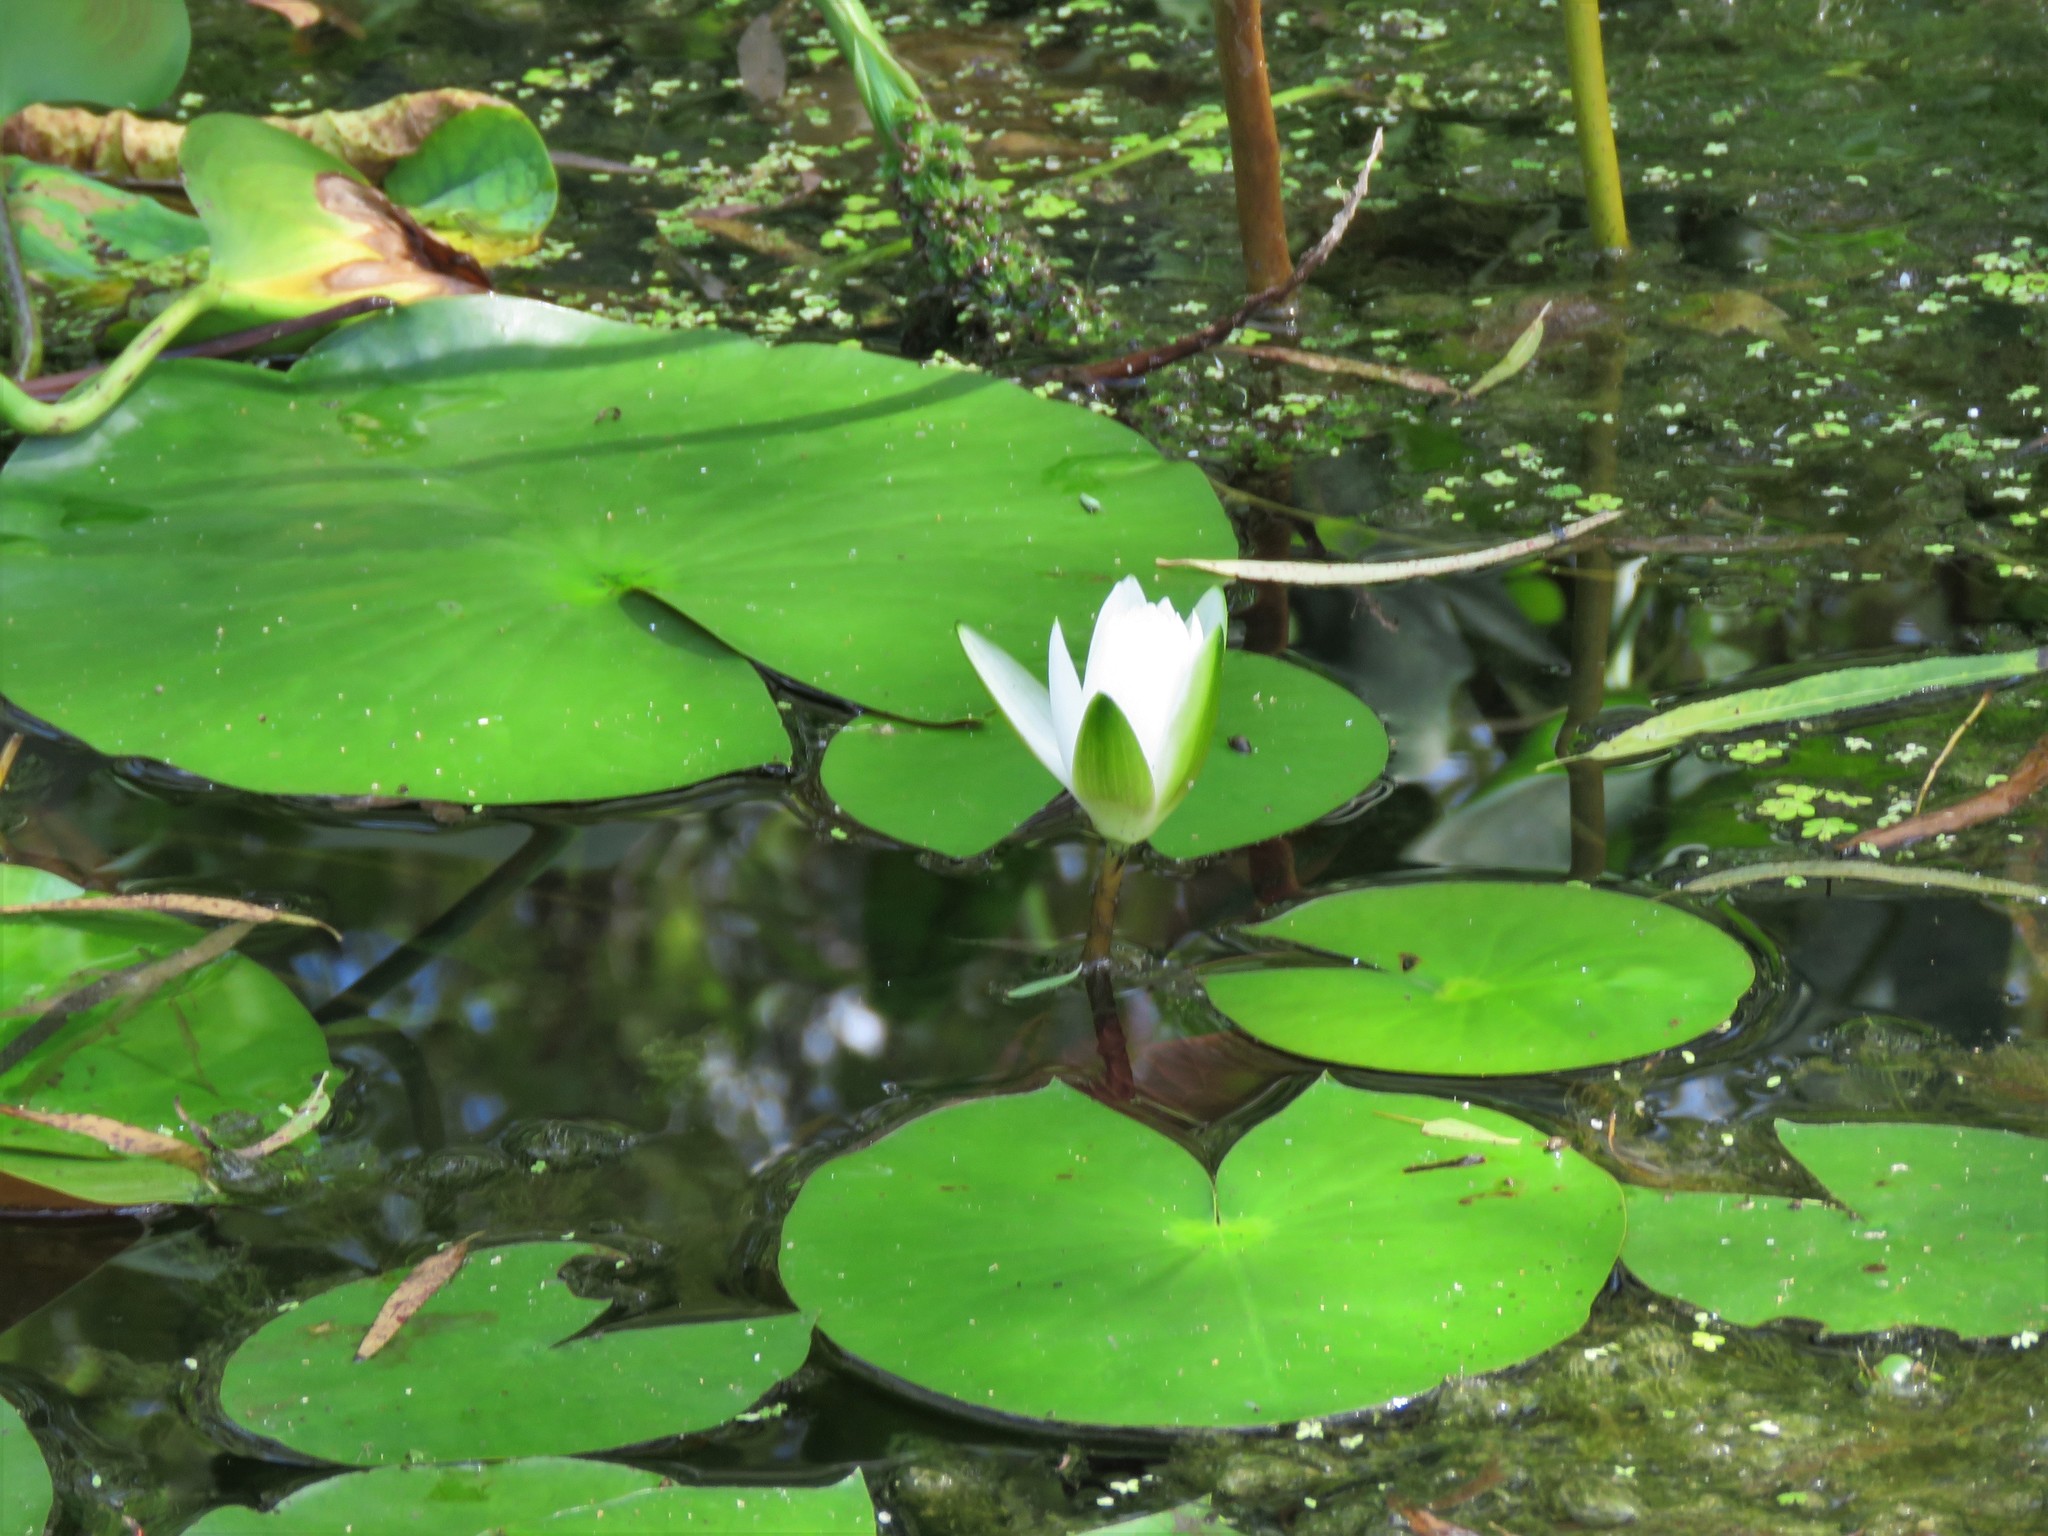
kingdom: Plantae
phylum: Tracheophyta
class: Magnoliopsida
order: Nymphaeales
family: Nymphaeaceae
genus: Nymphaea
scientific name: Nymphaea odorata
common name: Fragrant water-lily
